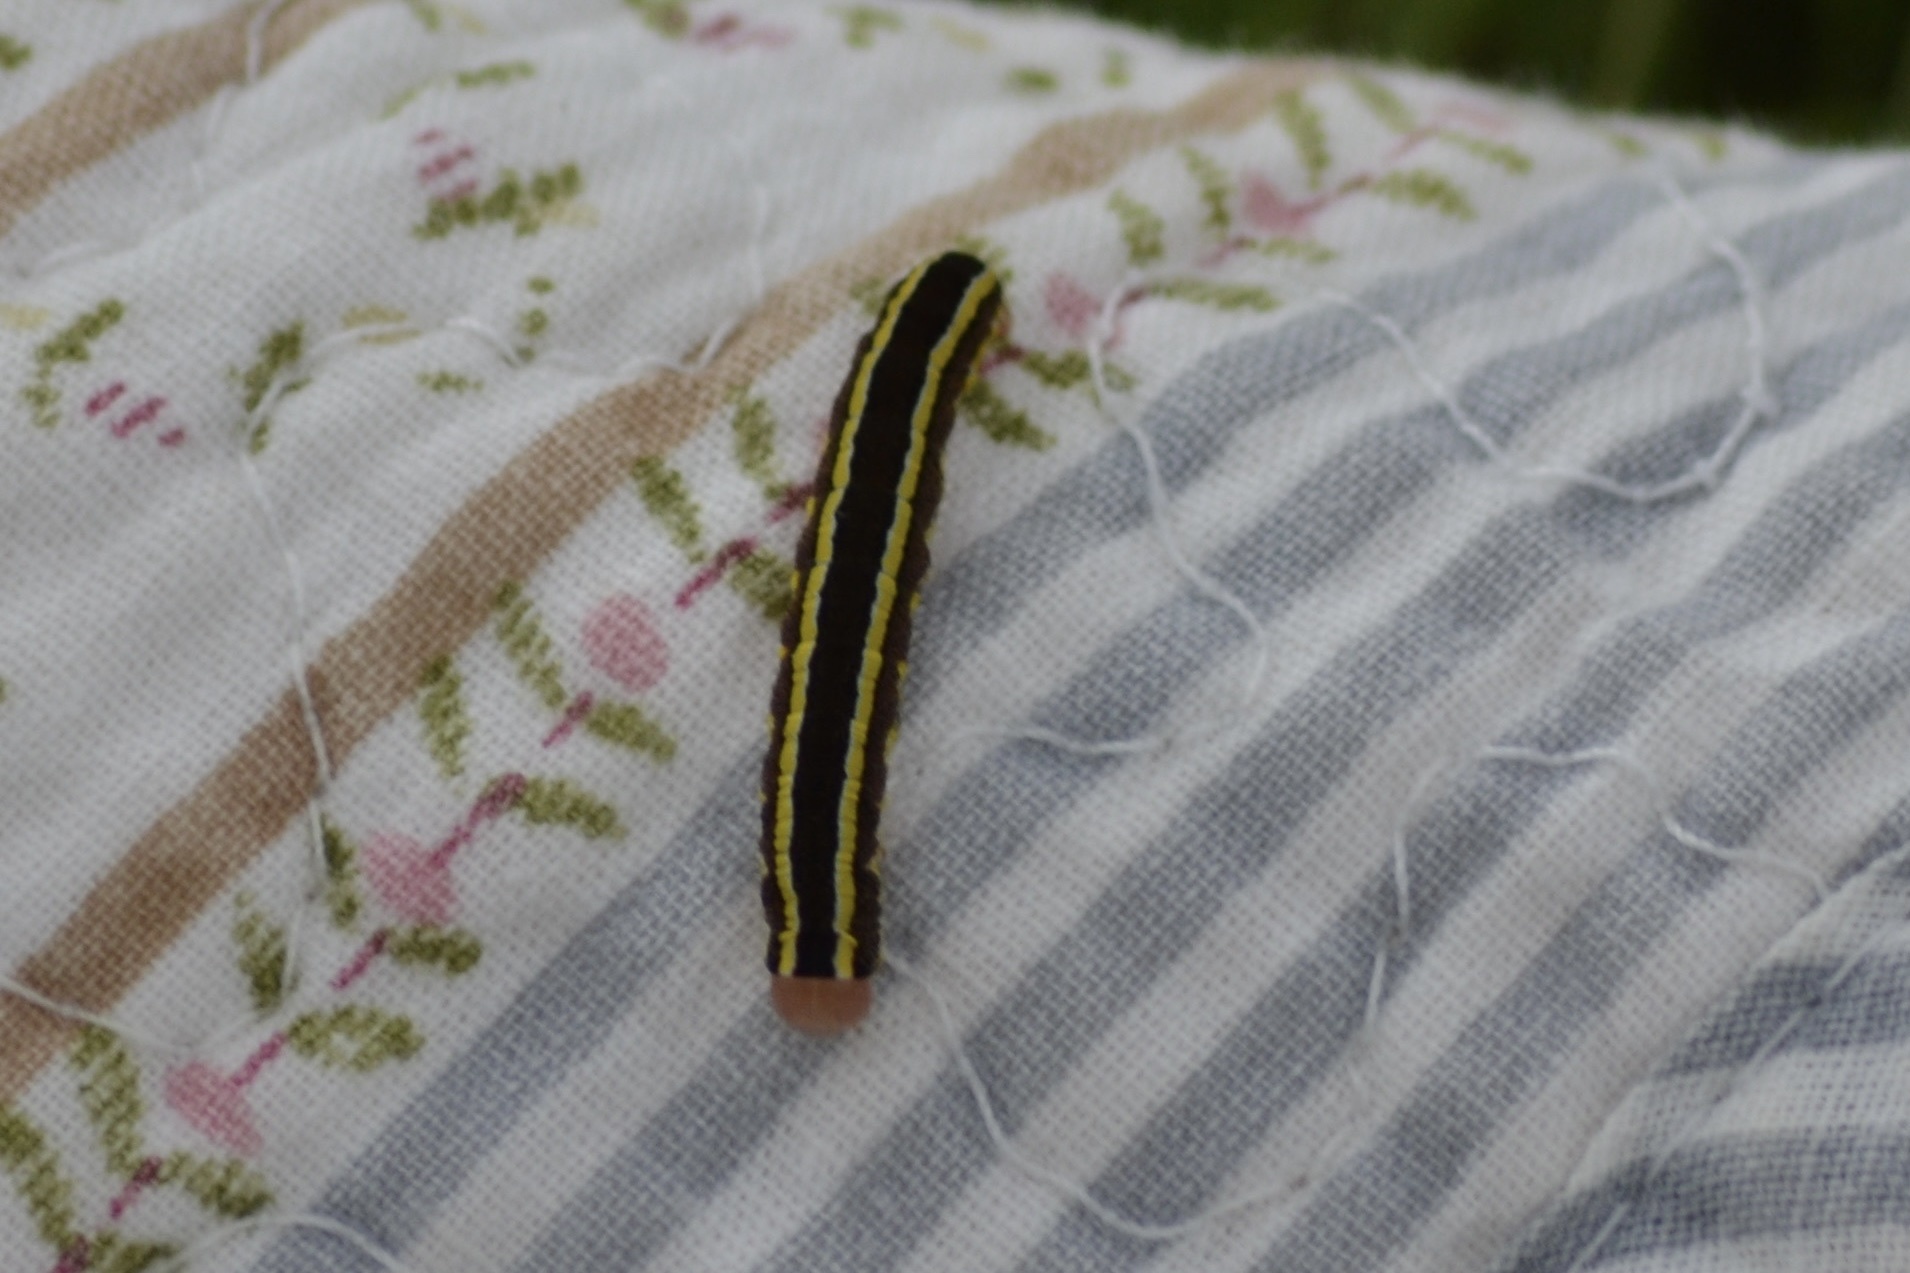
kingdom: Animalia
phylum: Arthropoda
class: Insecta
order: Lepidoptera
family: Noctuidae
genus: Ceramica
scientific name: Ceramica pisi
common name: Broom moth
